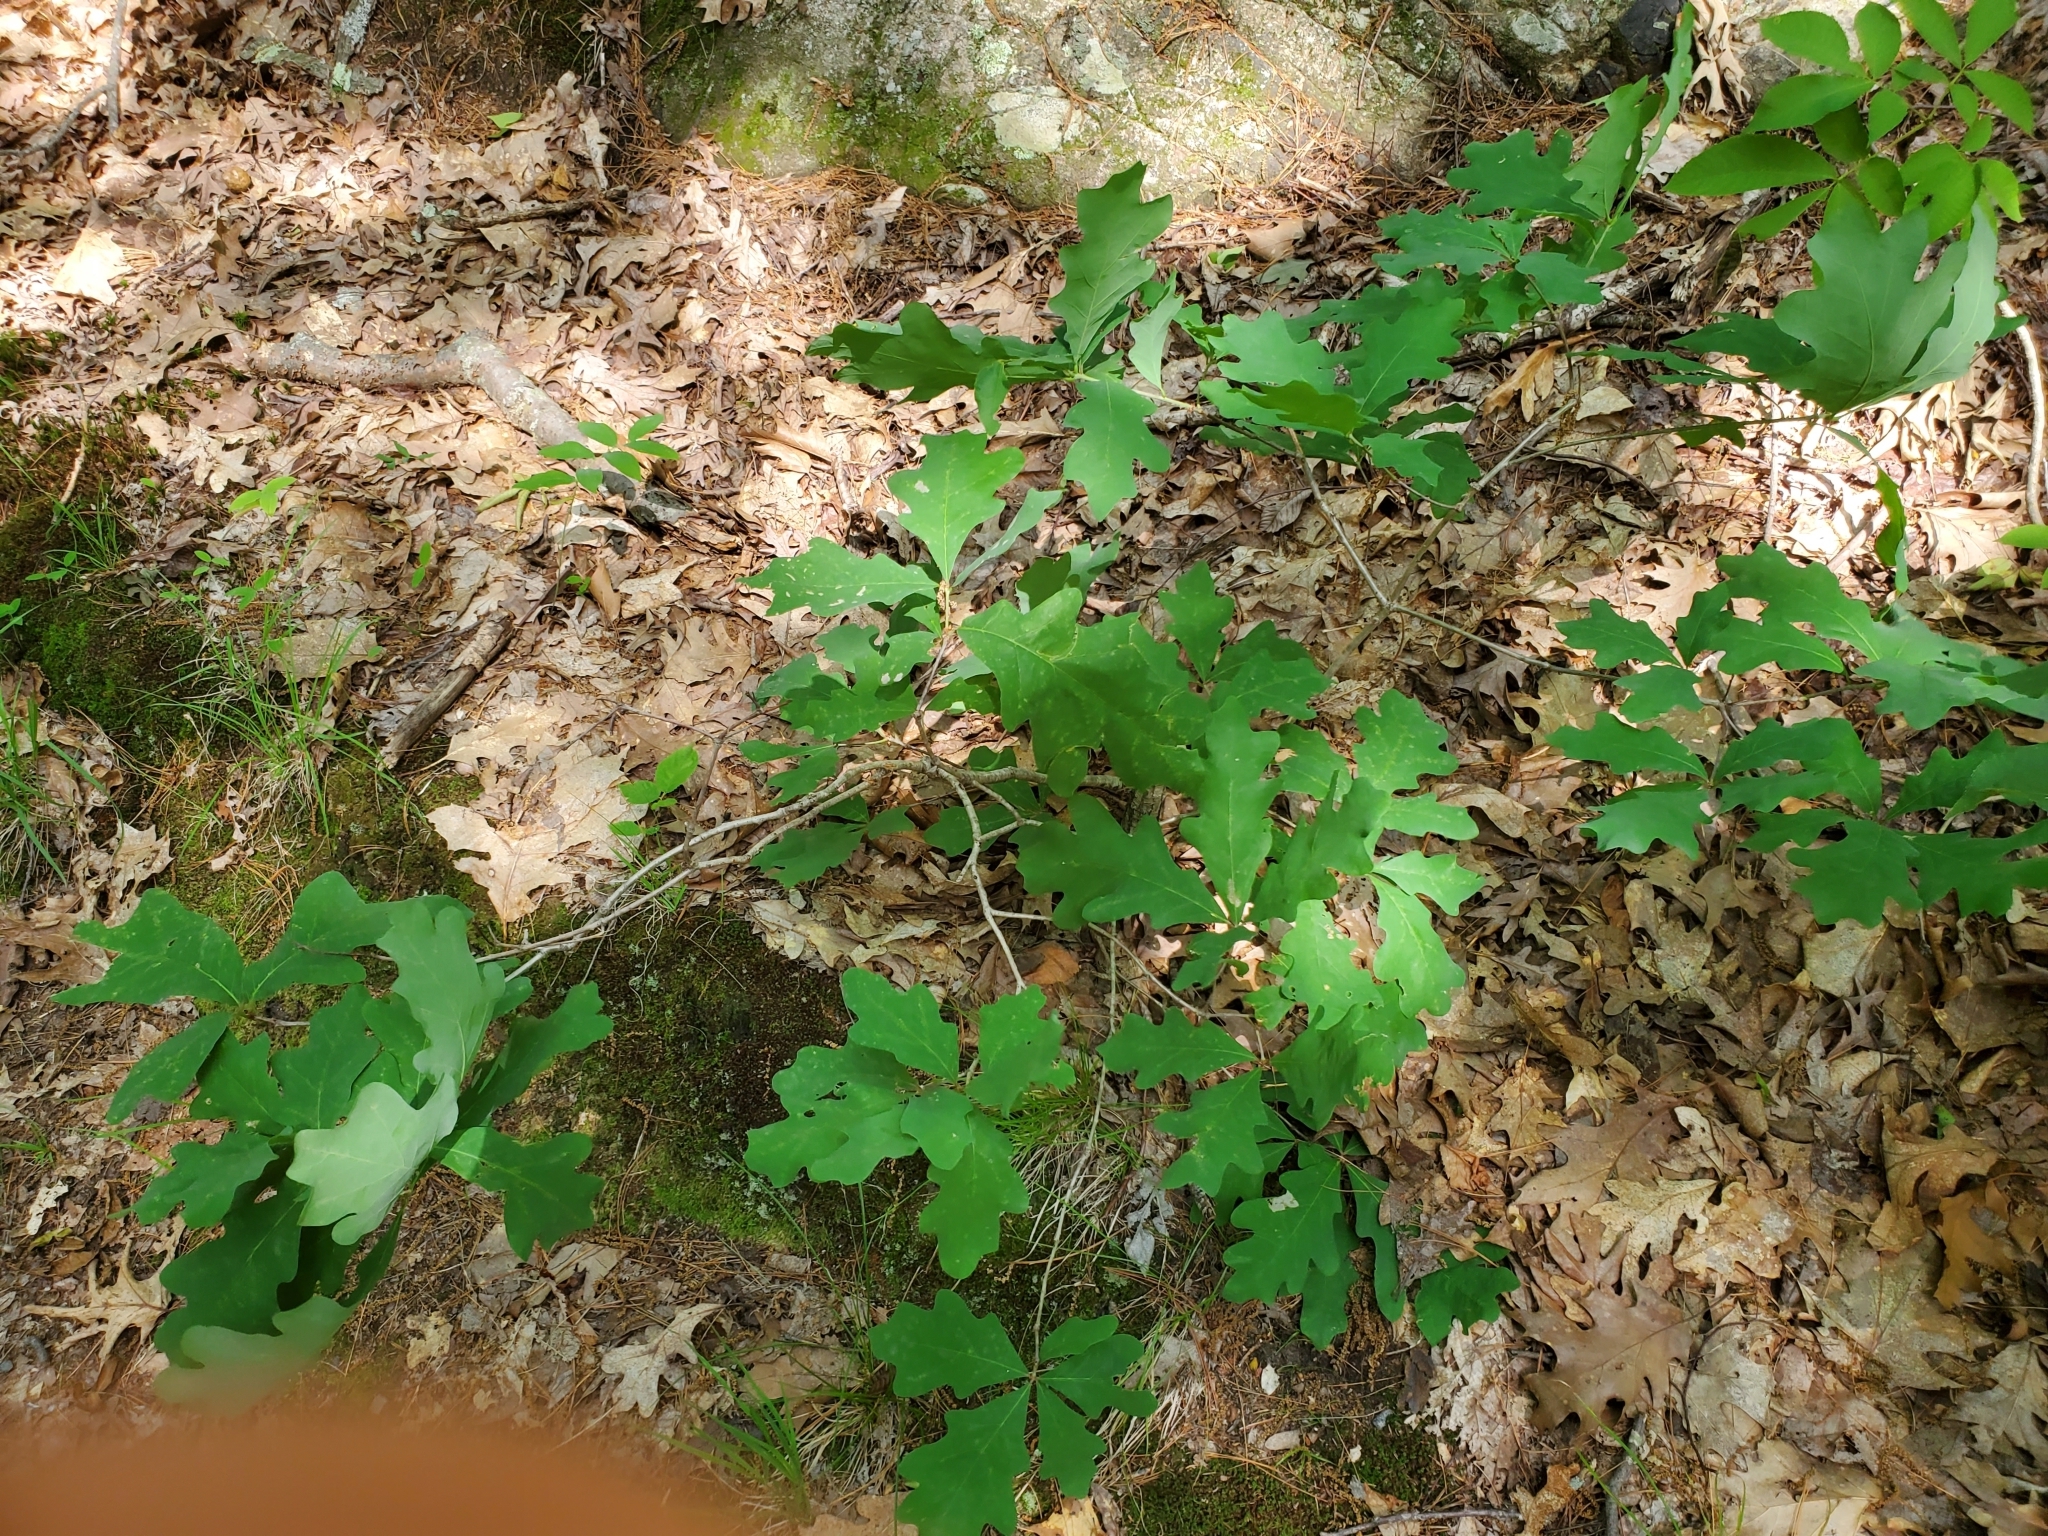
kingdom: Plantae
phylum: Tracheophyta
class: Magnoliopsida
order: Fagales
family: Fagaceae
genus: Quercus
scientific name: Quercus alba
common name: White oak
